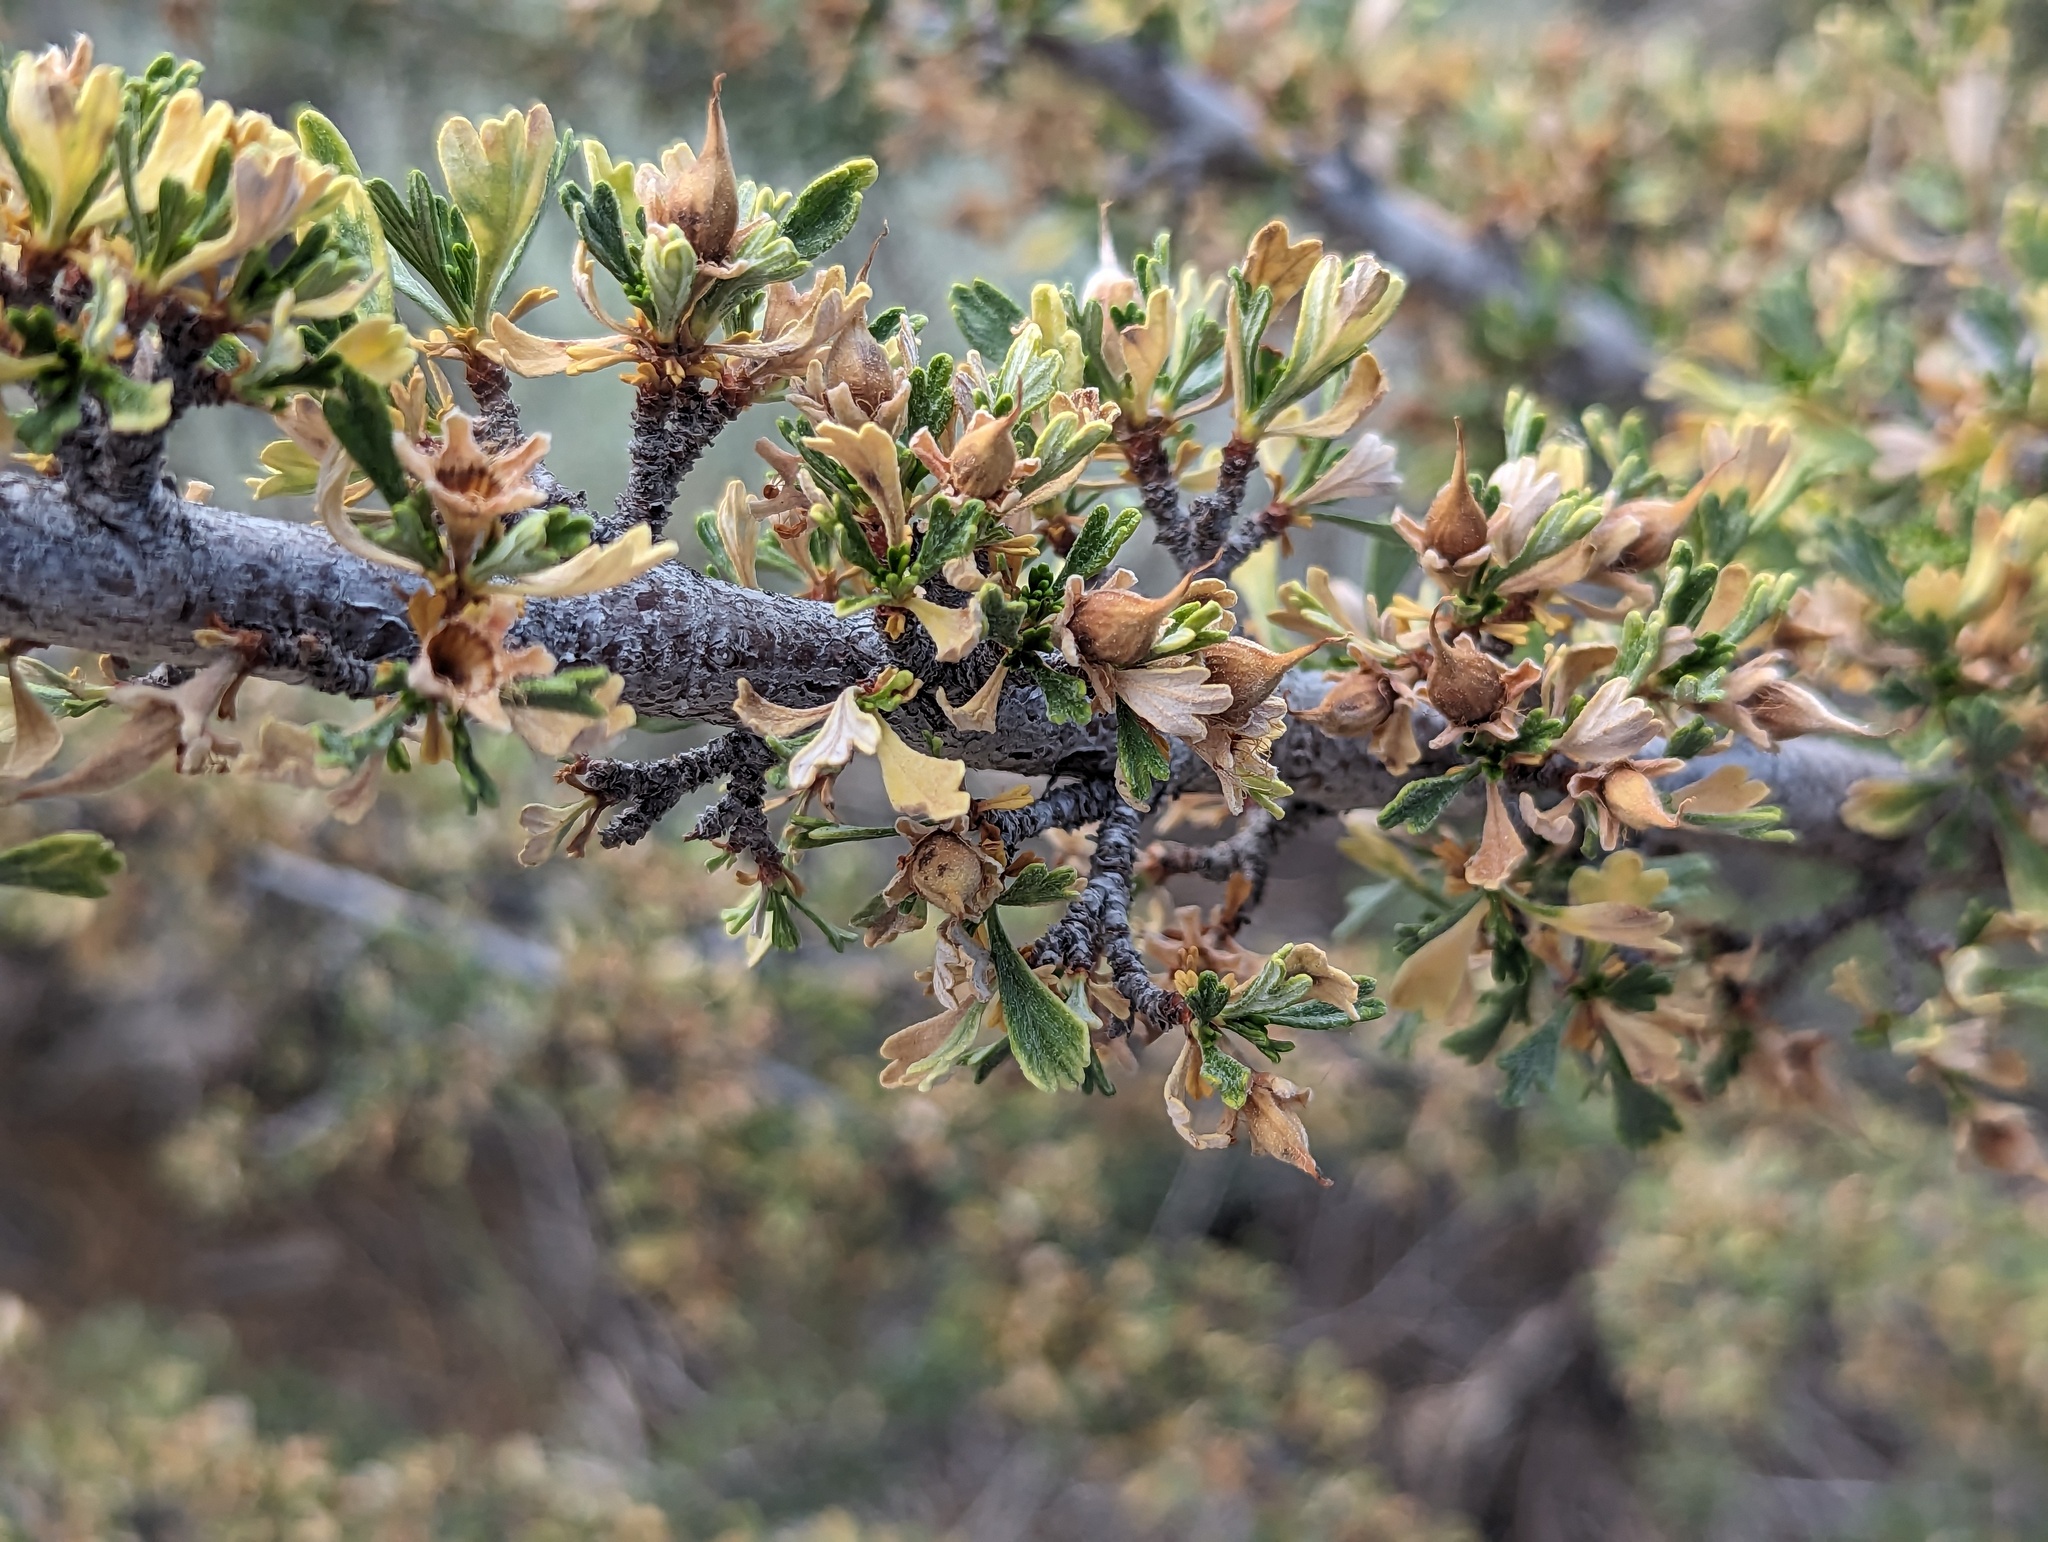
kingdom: Plantae
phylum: Tracheophyta
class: Magnoliopsida
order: Rosales
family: Rosaceae
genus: Purshia
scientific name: Purshia tridentata
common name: Antelope bitterbrush
